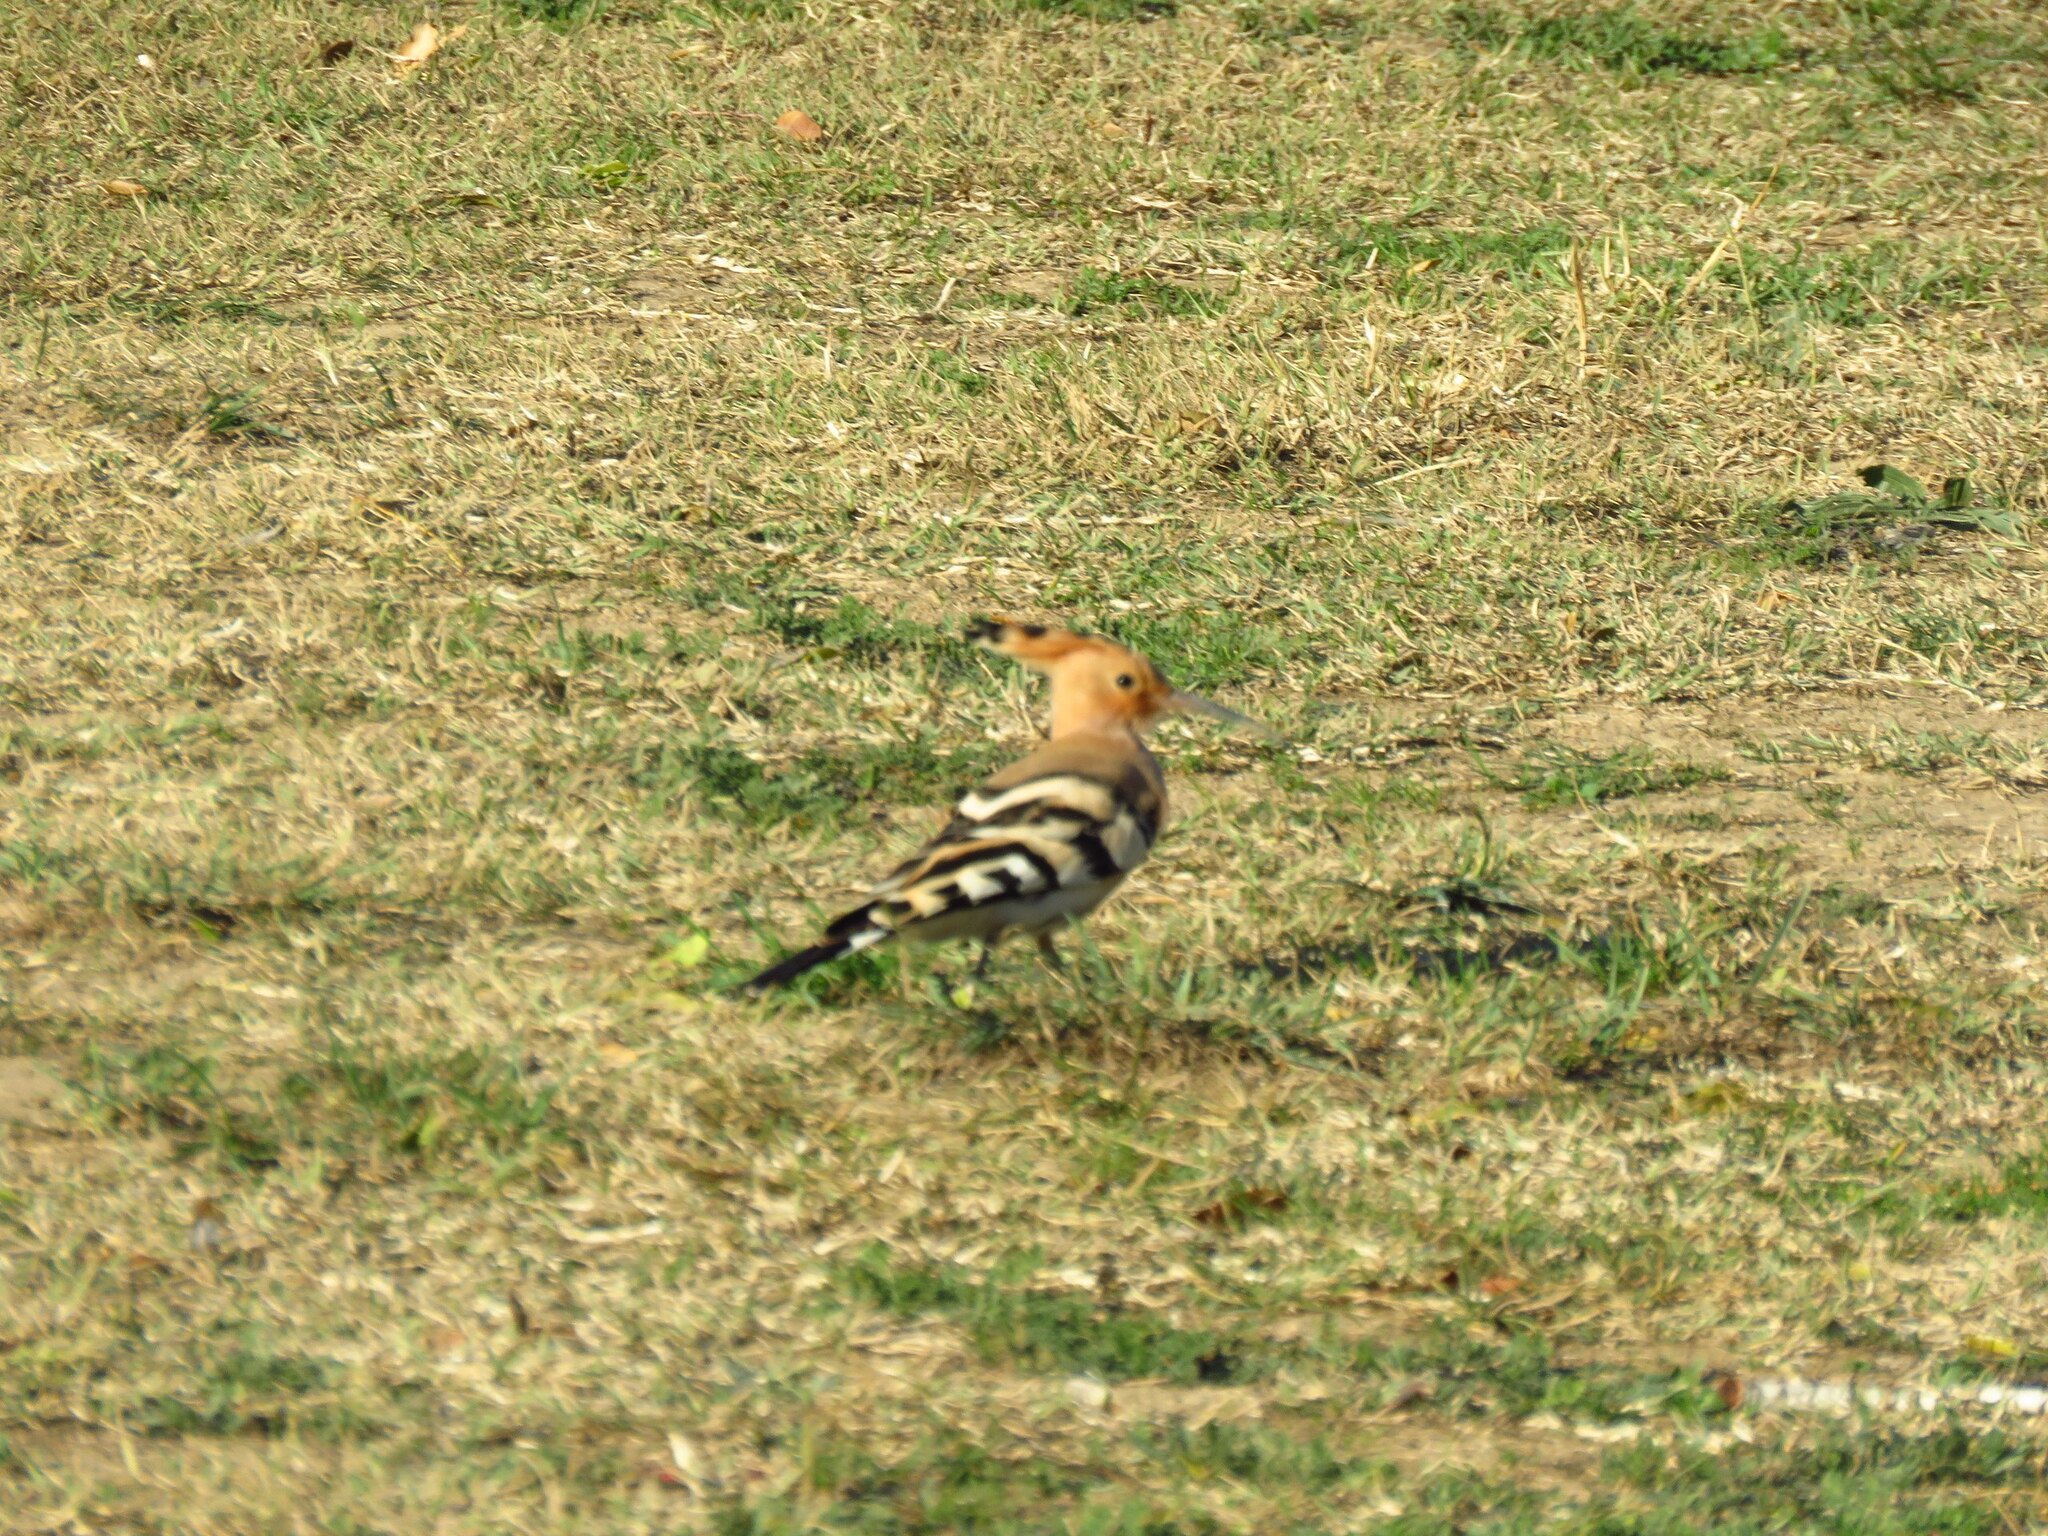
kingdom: Animalia
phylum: Chordata
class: Aves
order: Bucerotiformes
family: Upupidae
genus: Upupa
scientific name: Upupa epops
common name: Eurasian hoopoe
